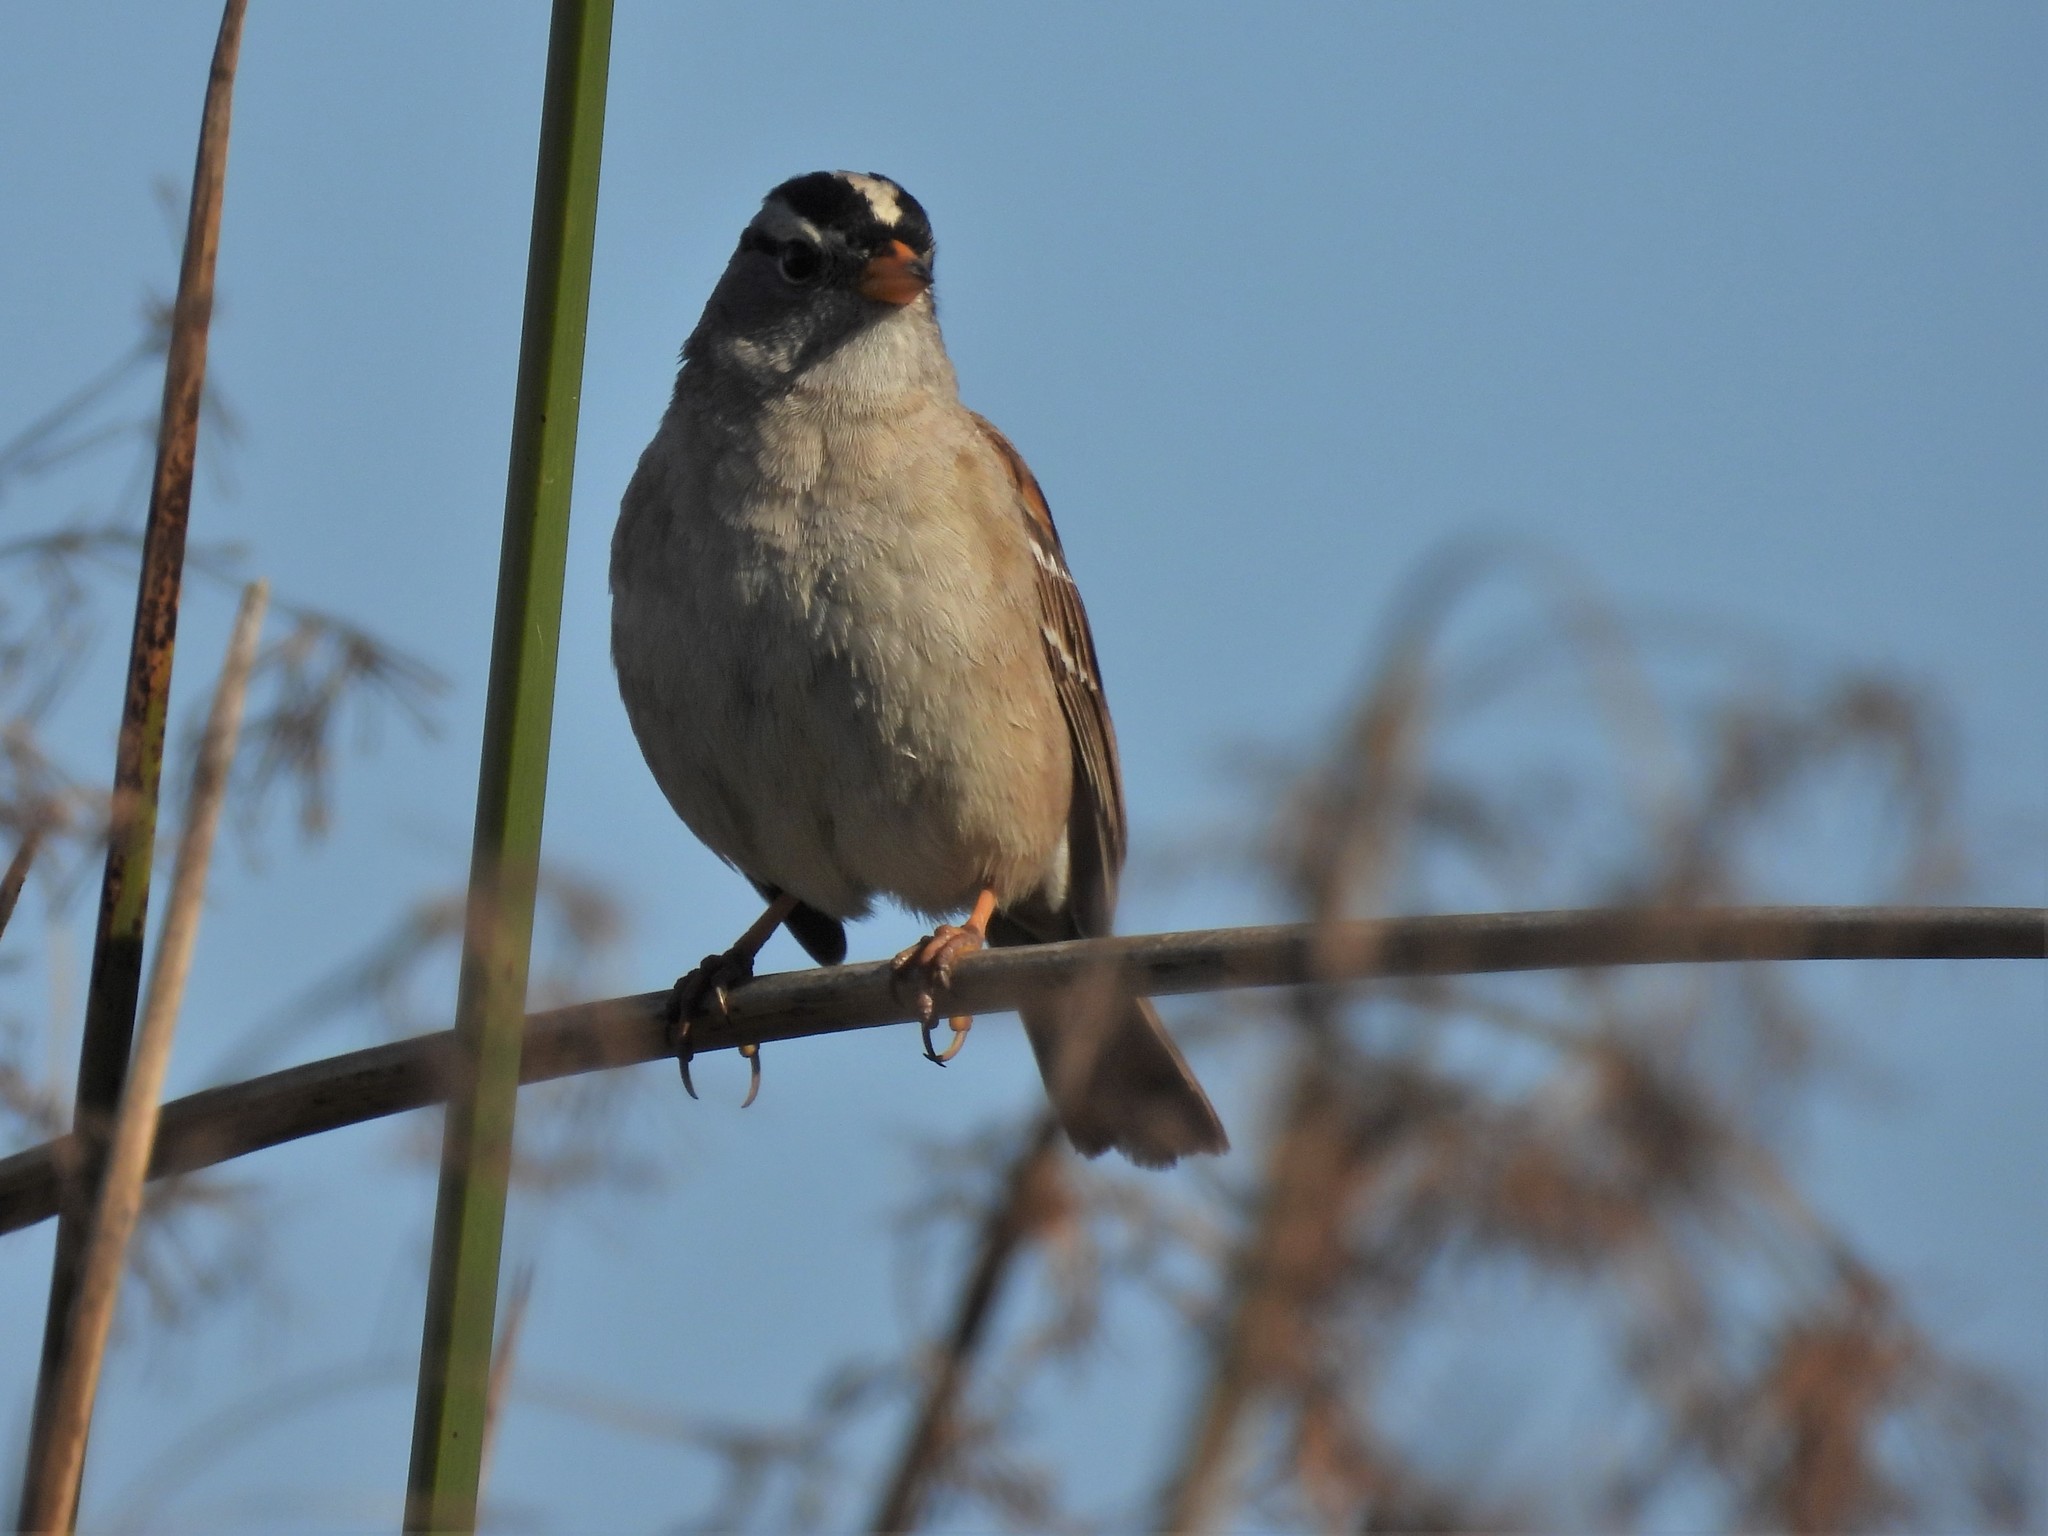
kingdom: Animalia
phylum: Chordata
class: Aves
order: Passeriformes
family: Passerellidae
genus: Zonotrichia
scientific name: Zonotrichia leucophrys
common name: White-crowned sparrow
